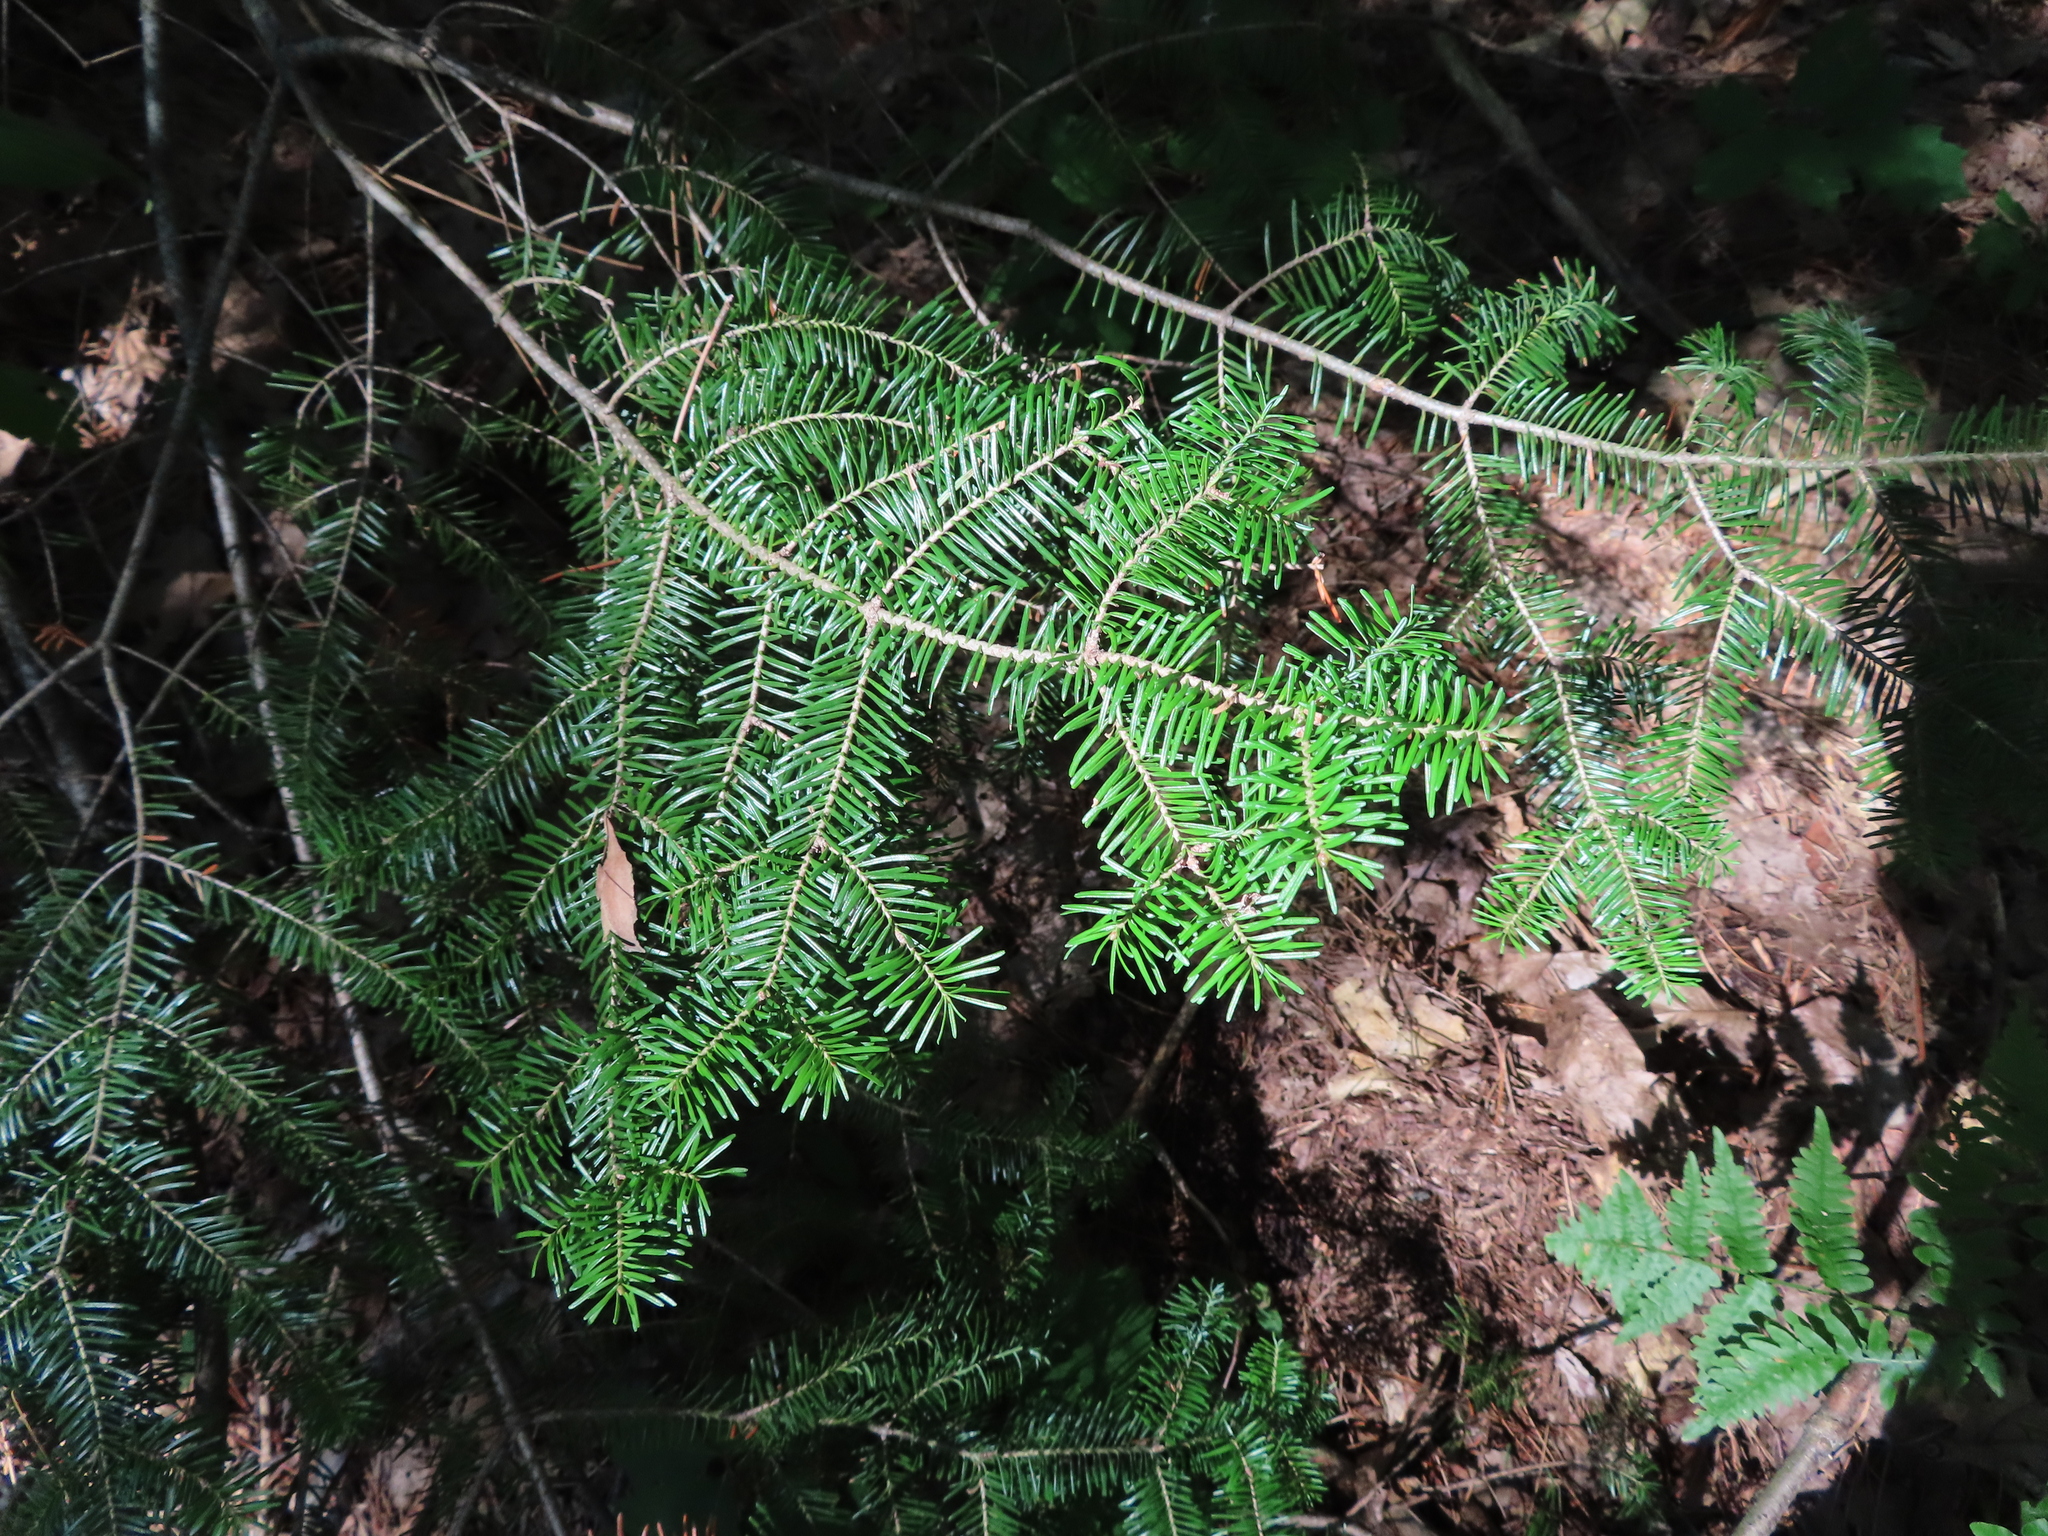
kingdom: Plantae
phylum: Tracheophyta
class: Pinopsida
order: Pinales
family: Pinaceae
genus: Abies
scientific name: Abies balsamea
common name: Balsam fir
